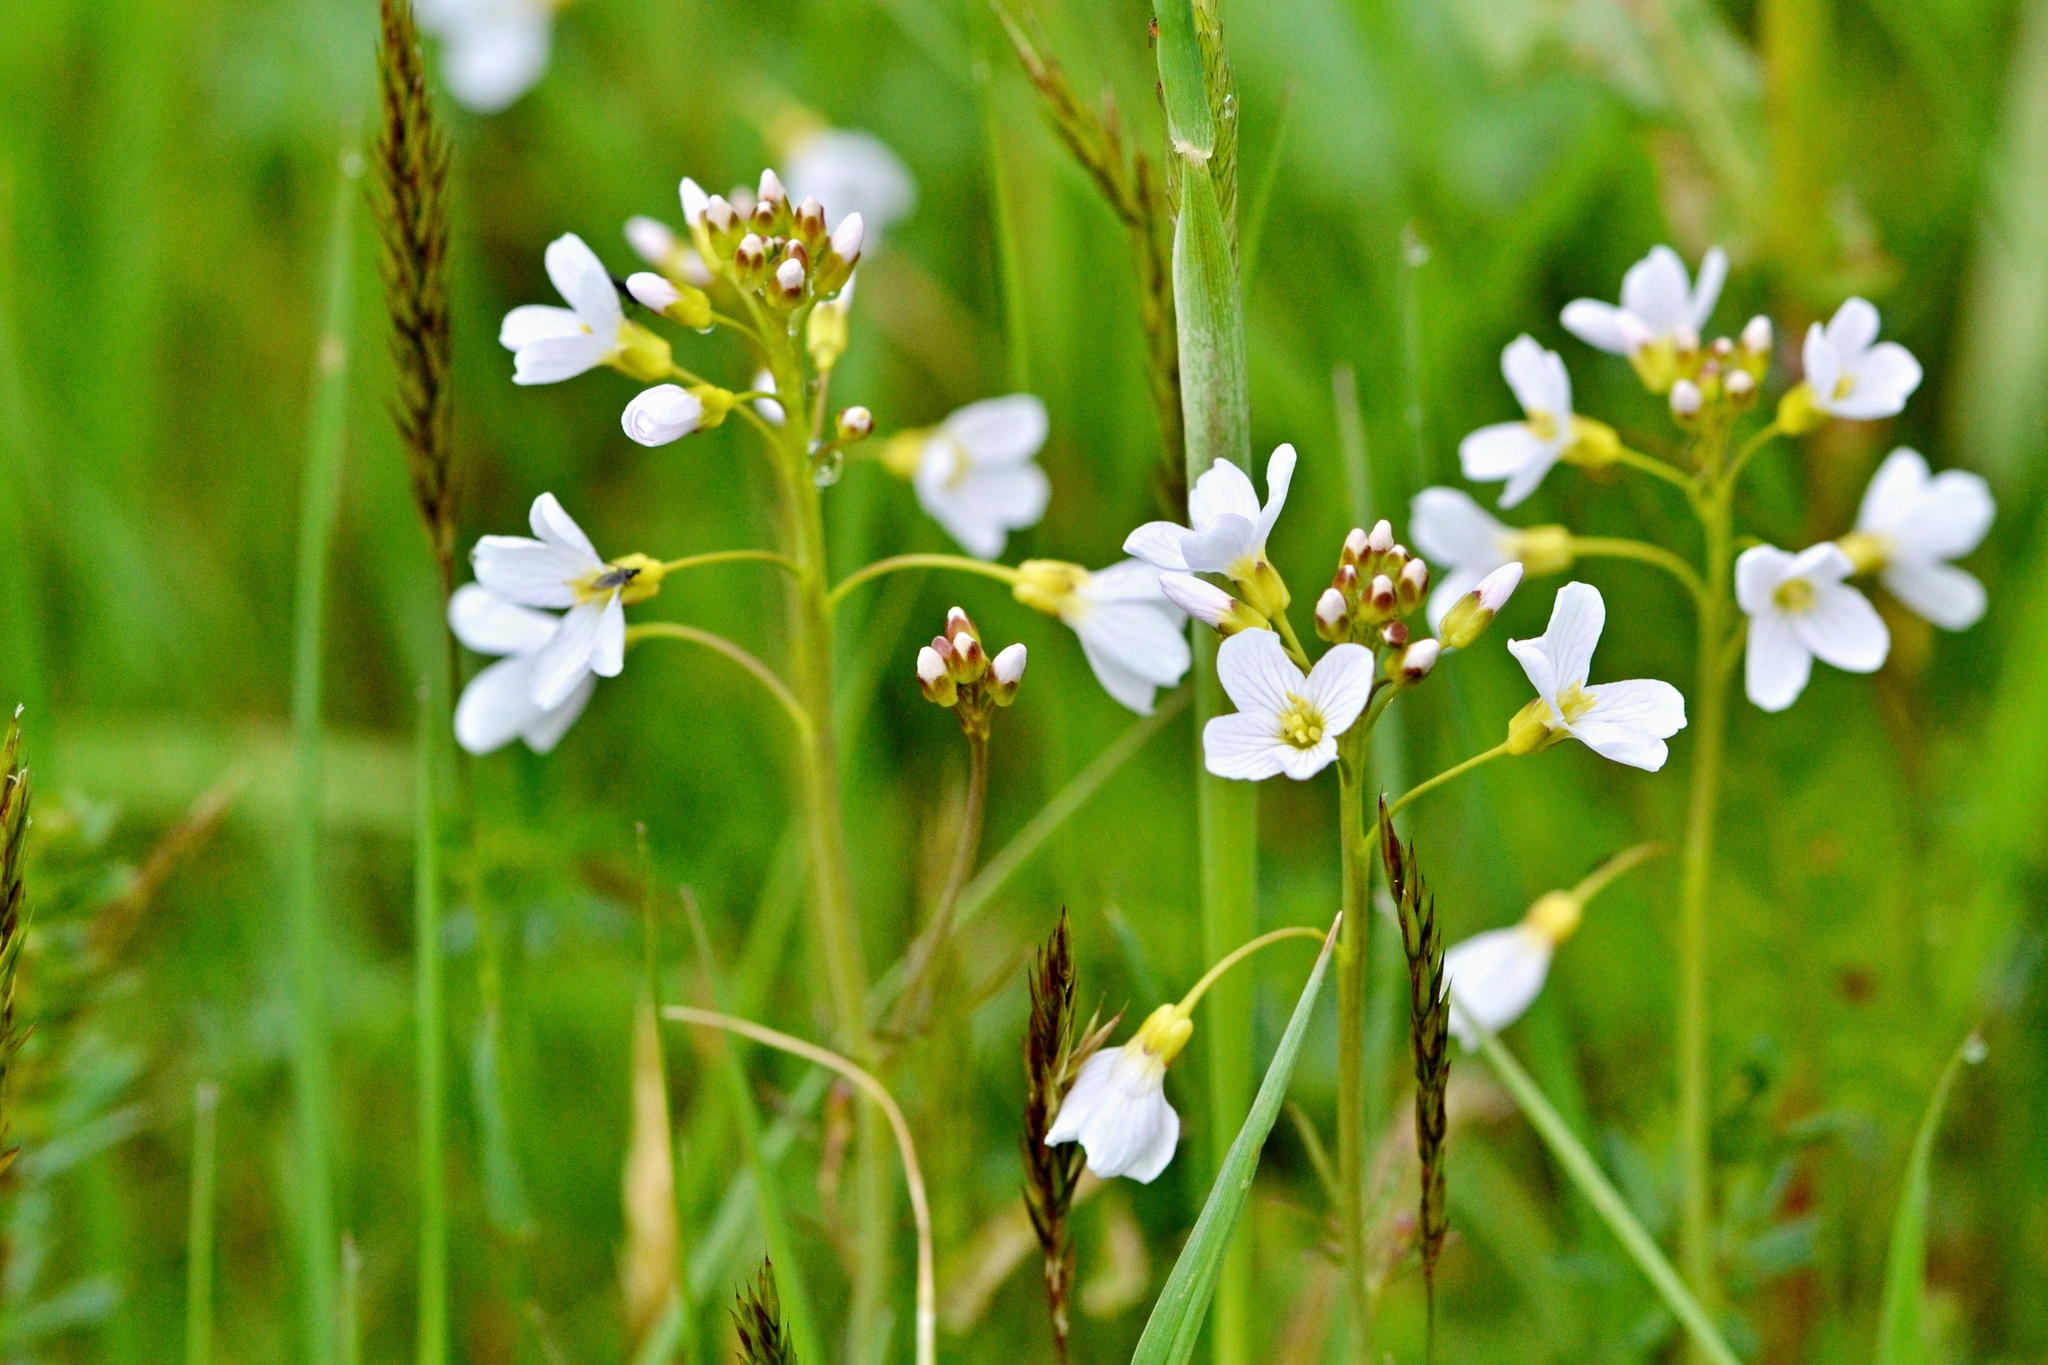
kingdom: Plantae
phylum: Tracheophyta
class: Magnoliopsida
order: Brassicales
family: Brassicaceae
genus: Cardamine
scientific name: Cardamine pratensis
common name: Cuckoo flower
